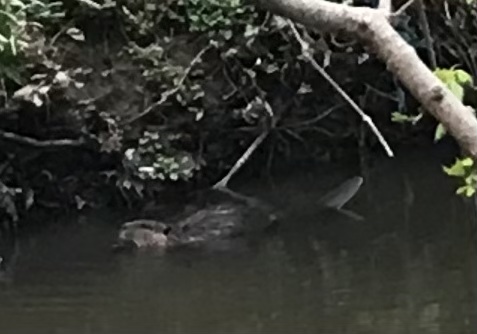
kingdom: Animalia
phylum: Chordata
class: Mammalia
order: Rodentia
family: Castoridae
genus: Castor
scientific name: Castor canadensis
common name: American beaver
